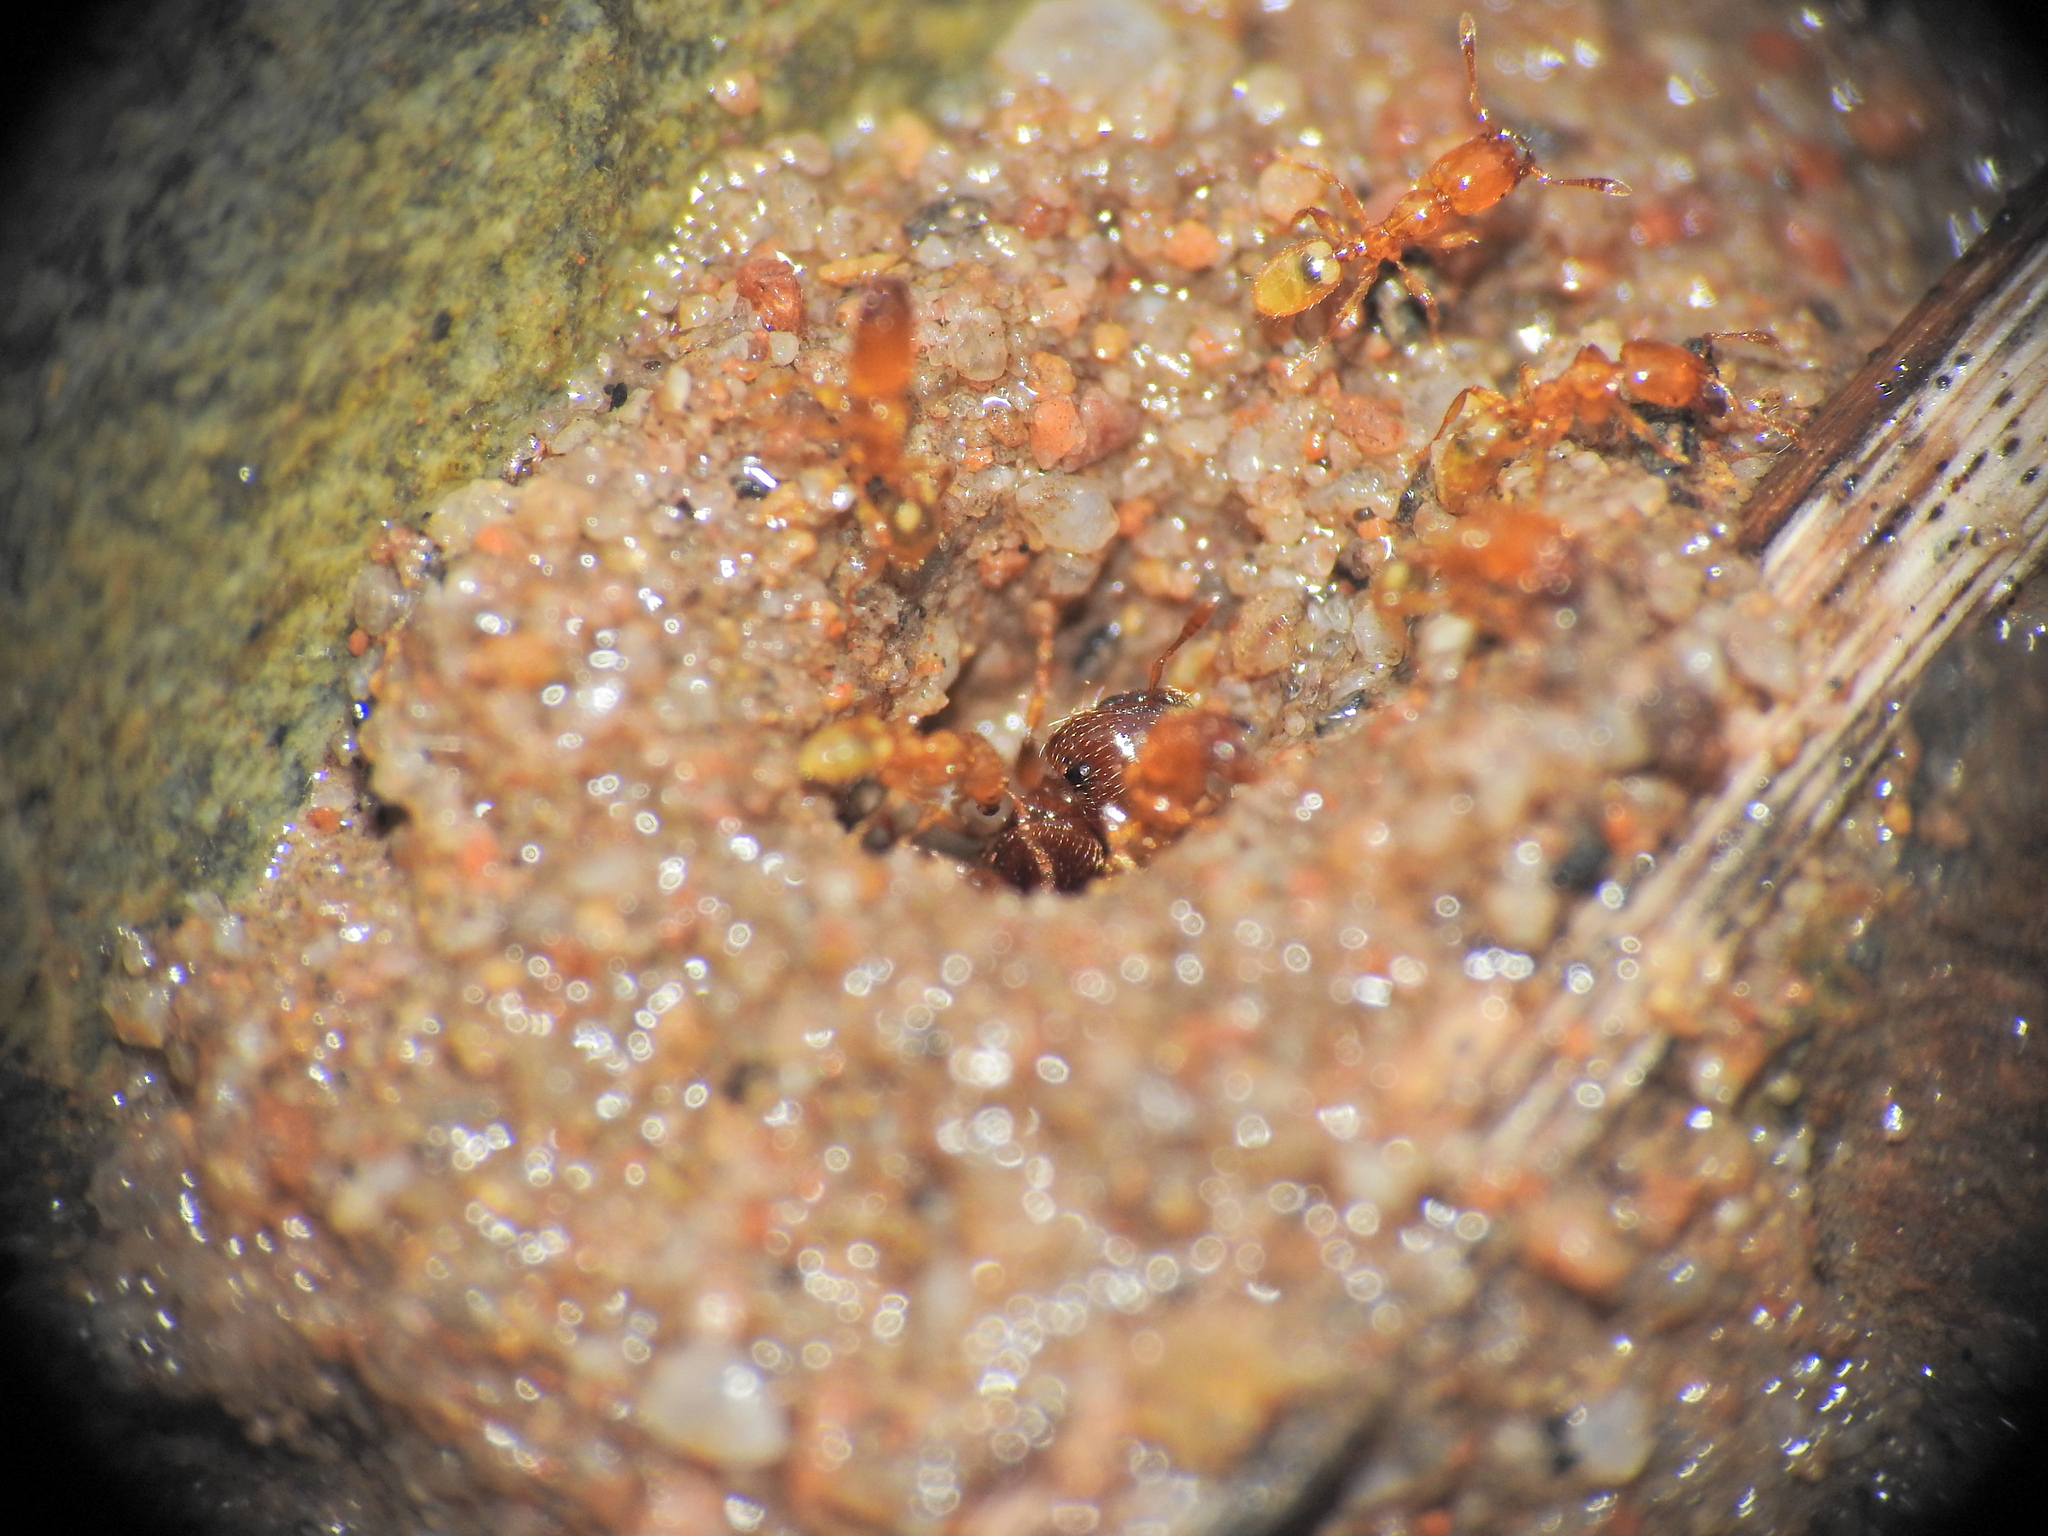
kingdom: Animalia
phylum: Arthropoda
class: Insecta
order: Hymenoptera
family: Formicidae
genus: Pheidole
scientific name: Pheidole
